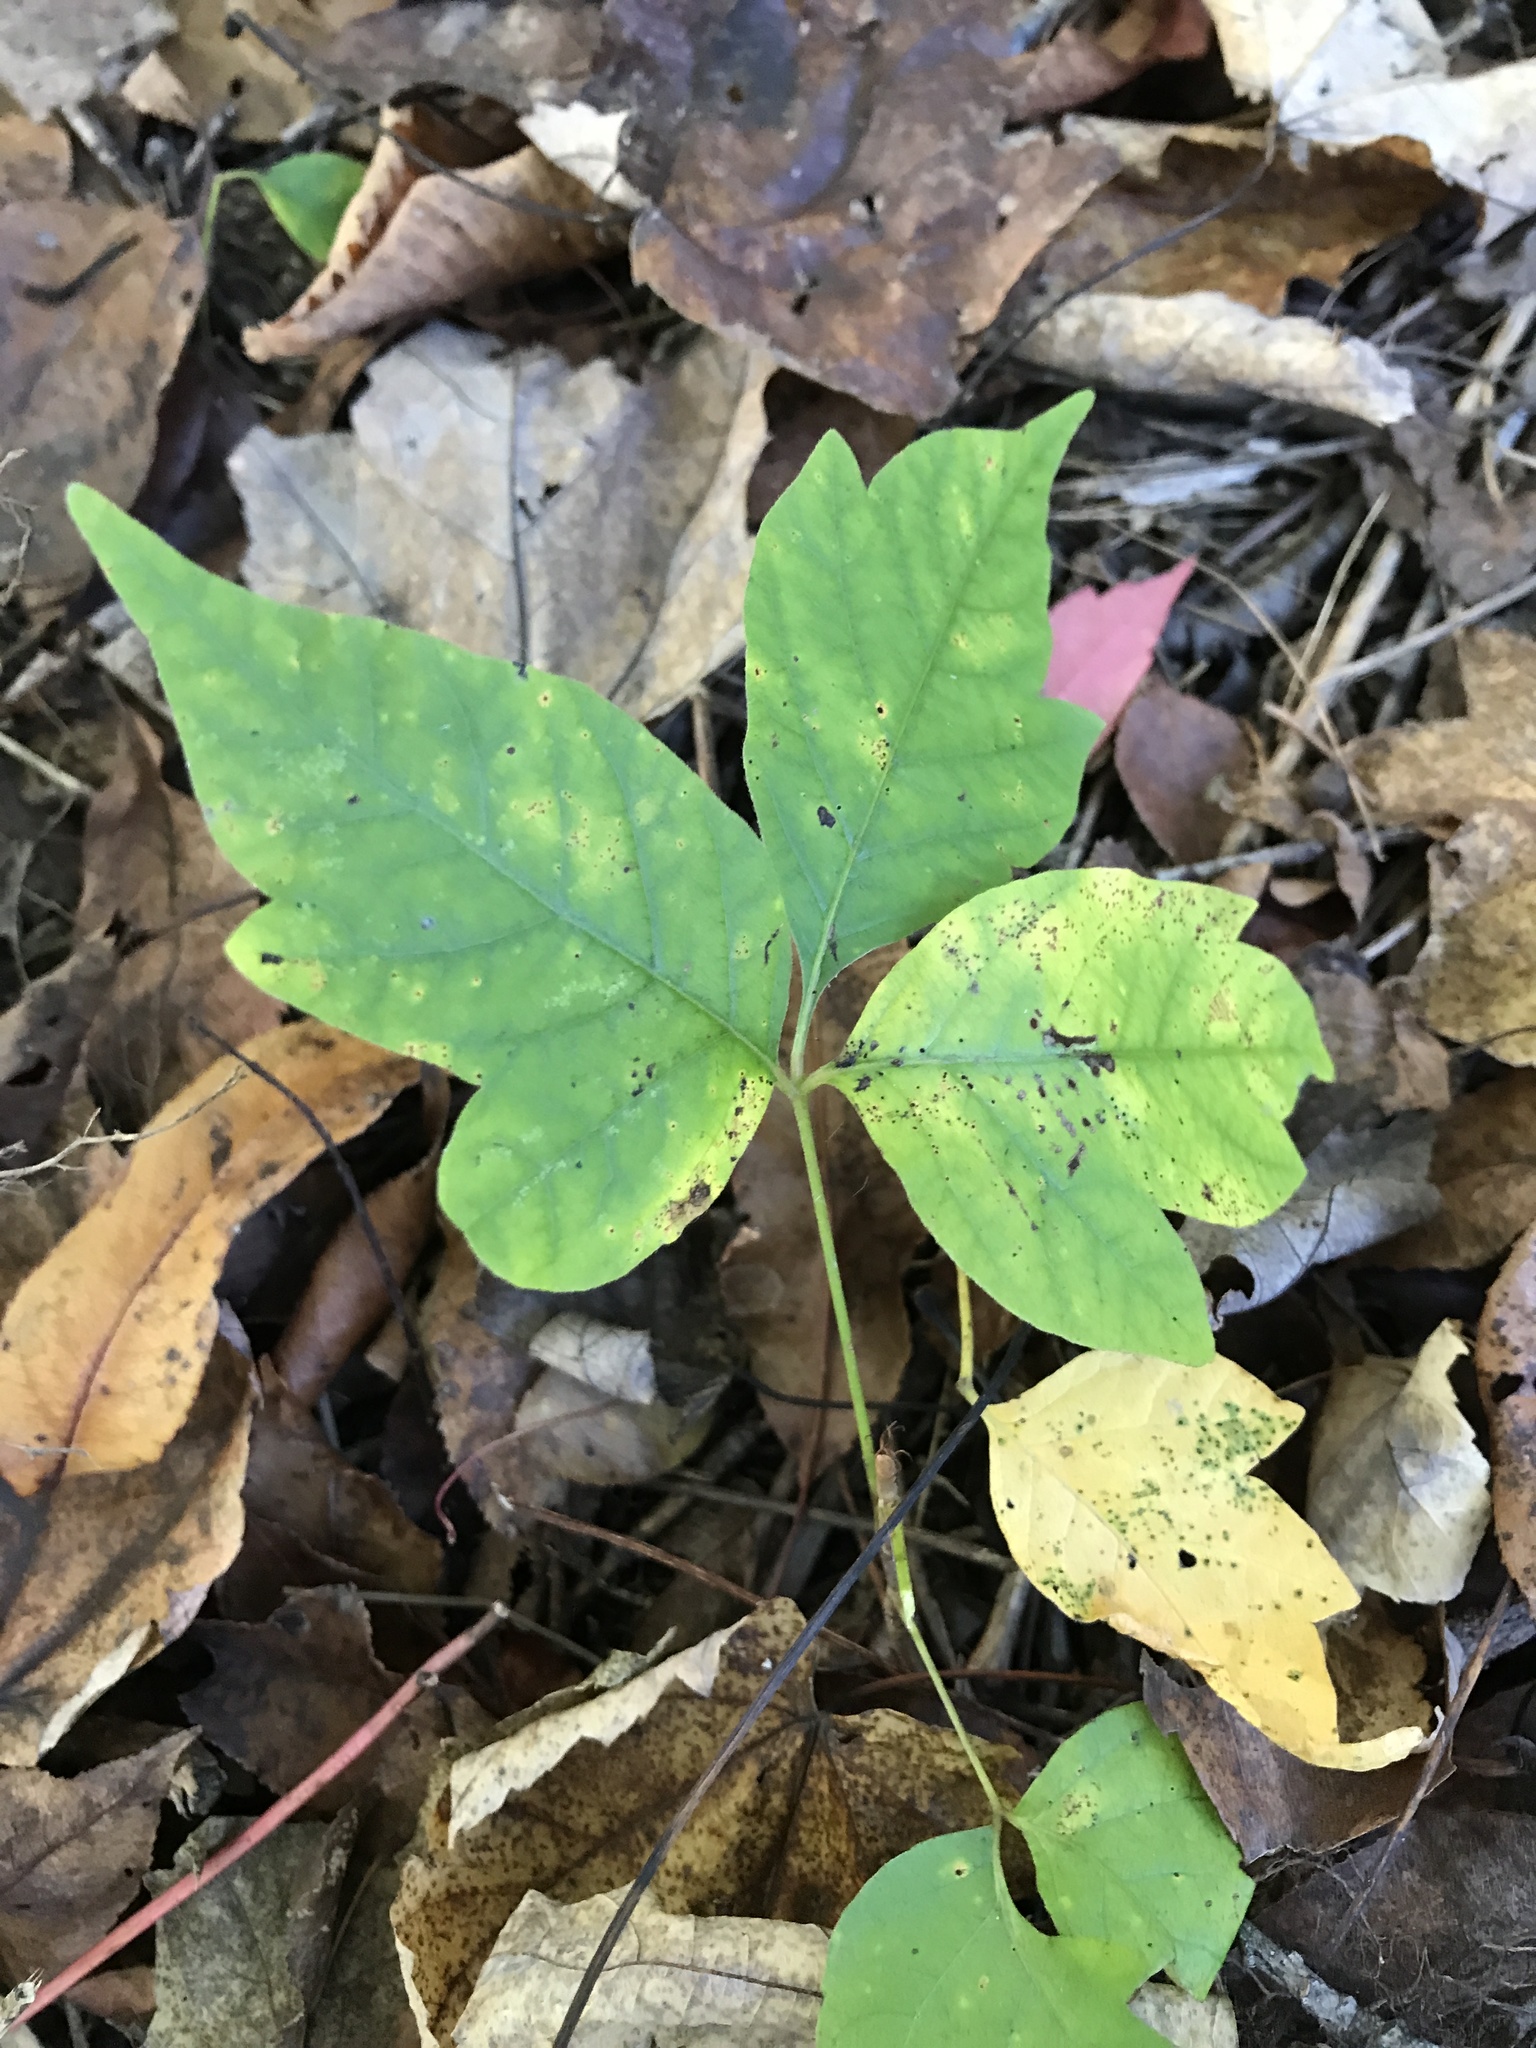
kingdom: Plantae
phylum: Tracheophyta
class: Magnoliopsida
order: Sapindales
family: Anacardiaceae
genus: Toxicodendron
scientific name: Toxicodendron radicans
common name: Poison ivy
